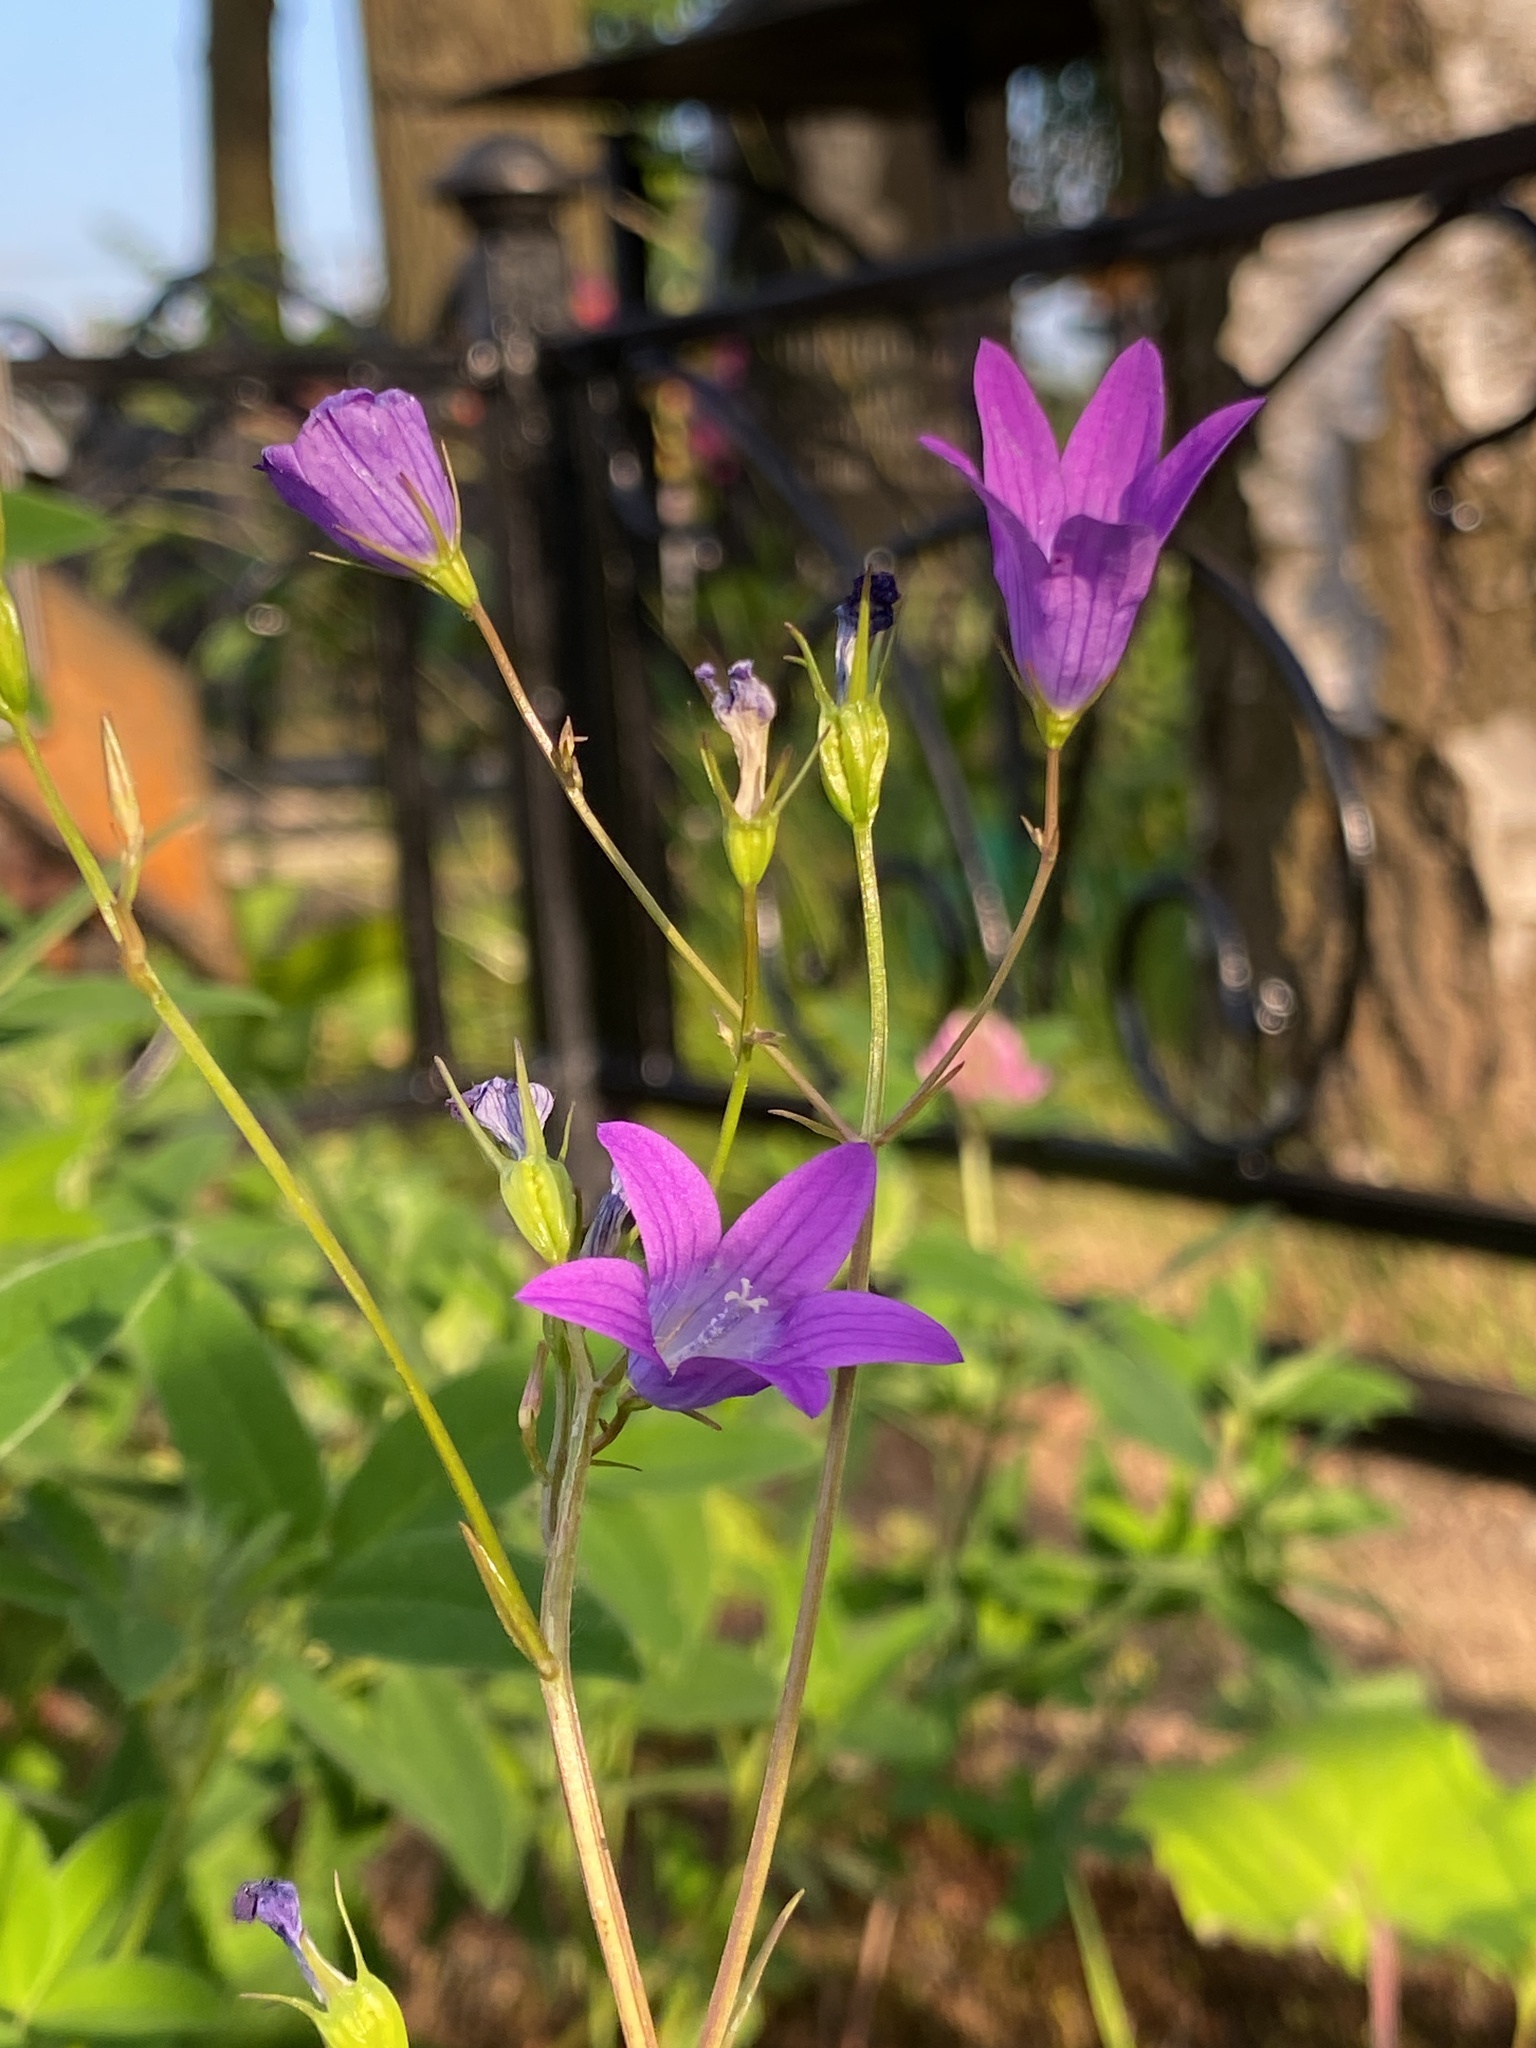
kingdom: Plantae
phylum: Tracheophyta
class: Magnoliopsida
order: Asterales
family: Campanulaceae
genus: Campanula
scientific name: Campanula patula
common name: Spreading bellflower
